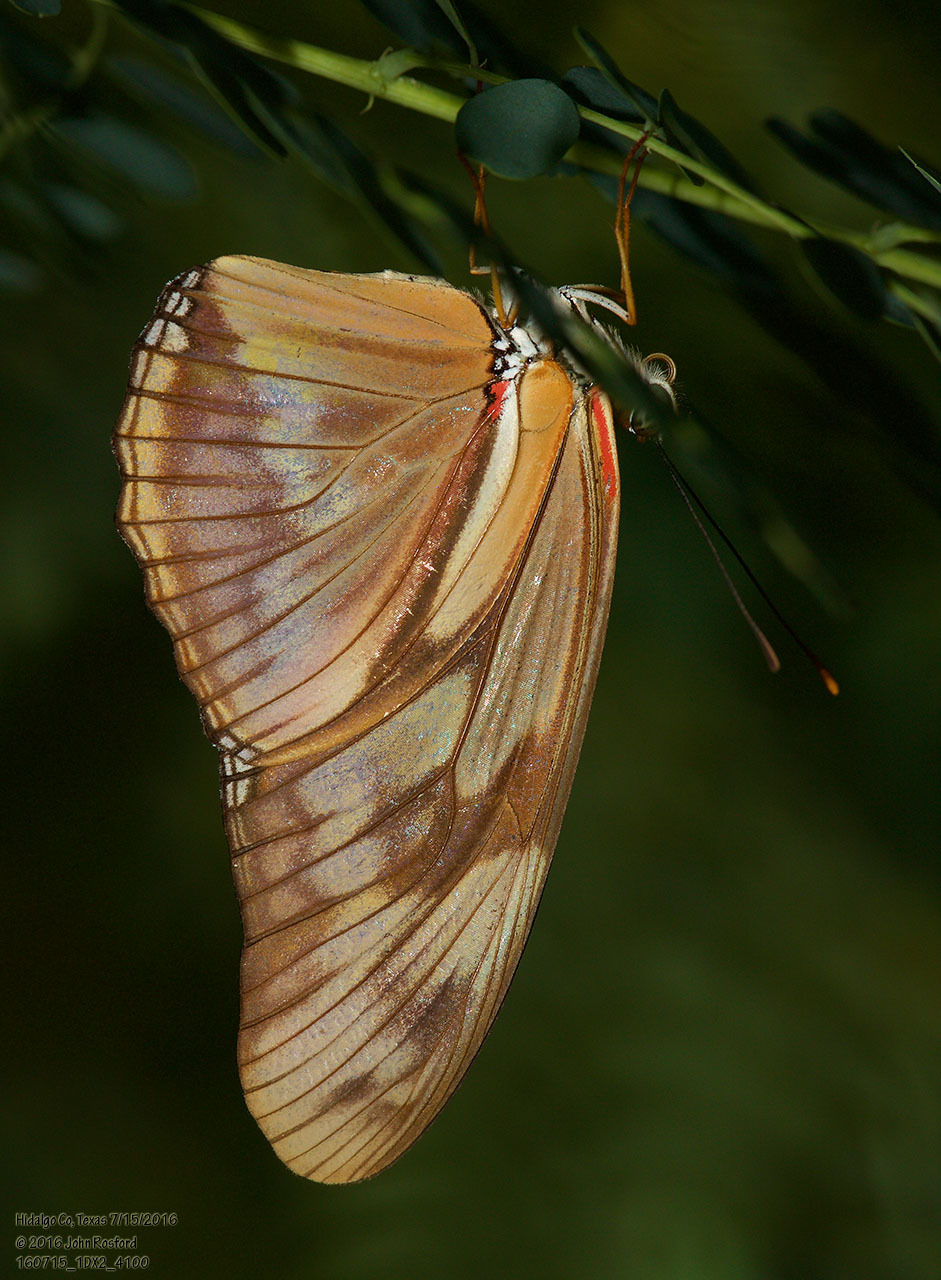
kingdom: Animalia
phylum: Arthropoda
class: Insecta
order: Lepidoptera
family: Nymphalidae
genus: Dryas
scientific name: Dryas iulia
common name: Flambeau
